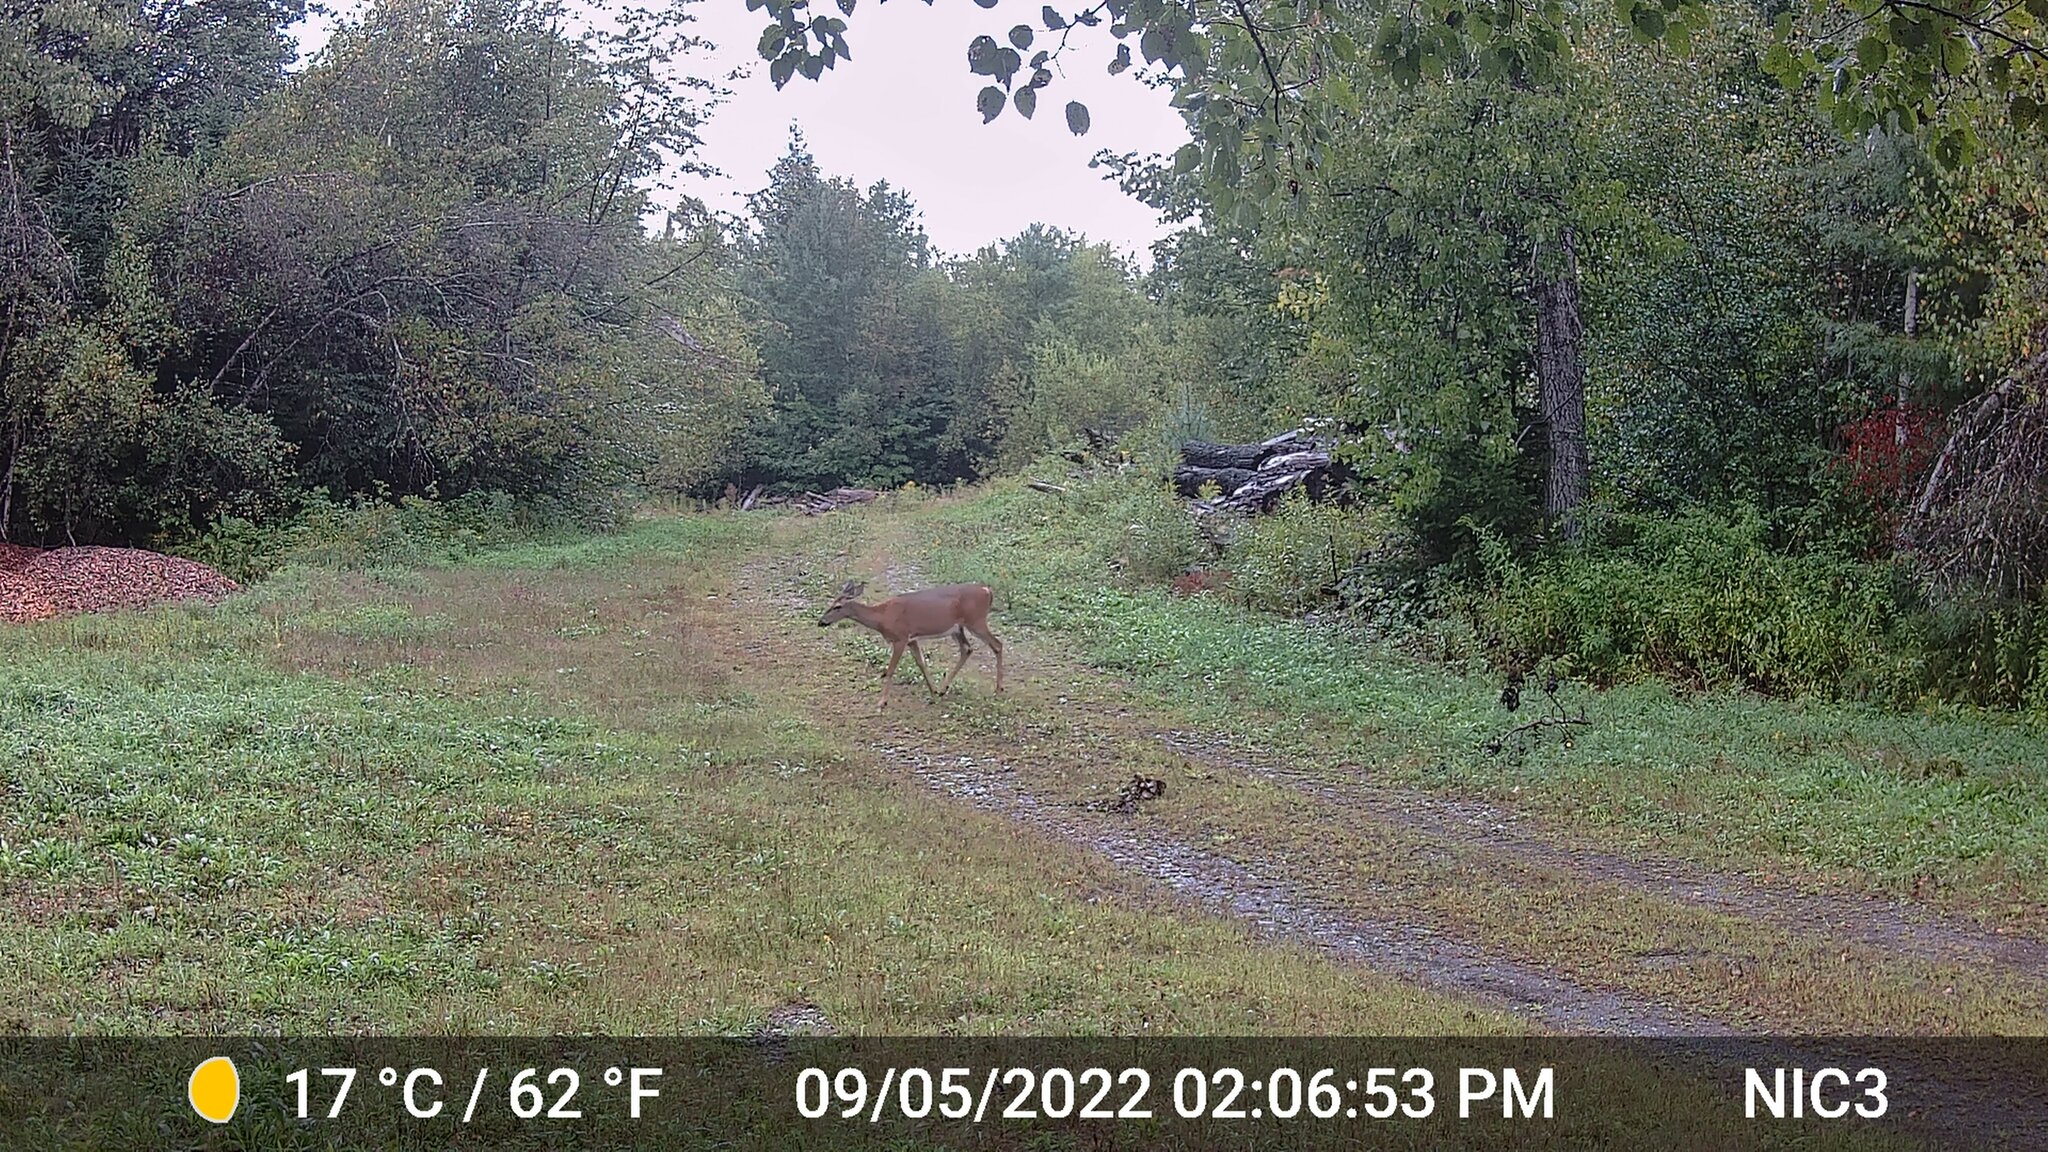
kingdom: Animalia
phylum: Chordata
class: Mammalia
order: Artiodactyla
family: Cervidae
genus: Odocoileus
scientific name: Odocoileus virginianus
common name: White-tailed deer
